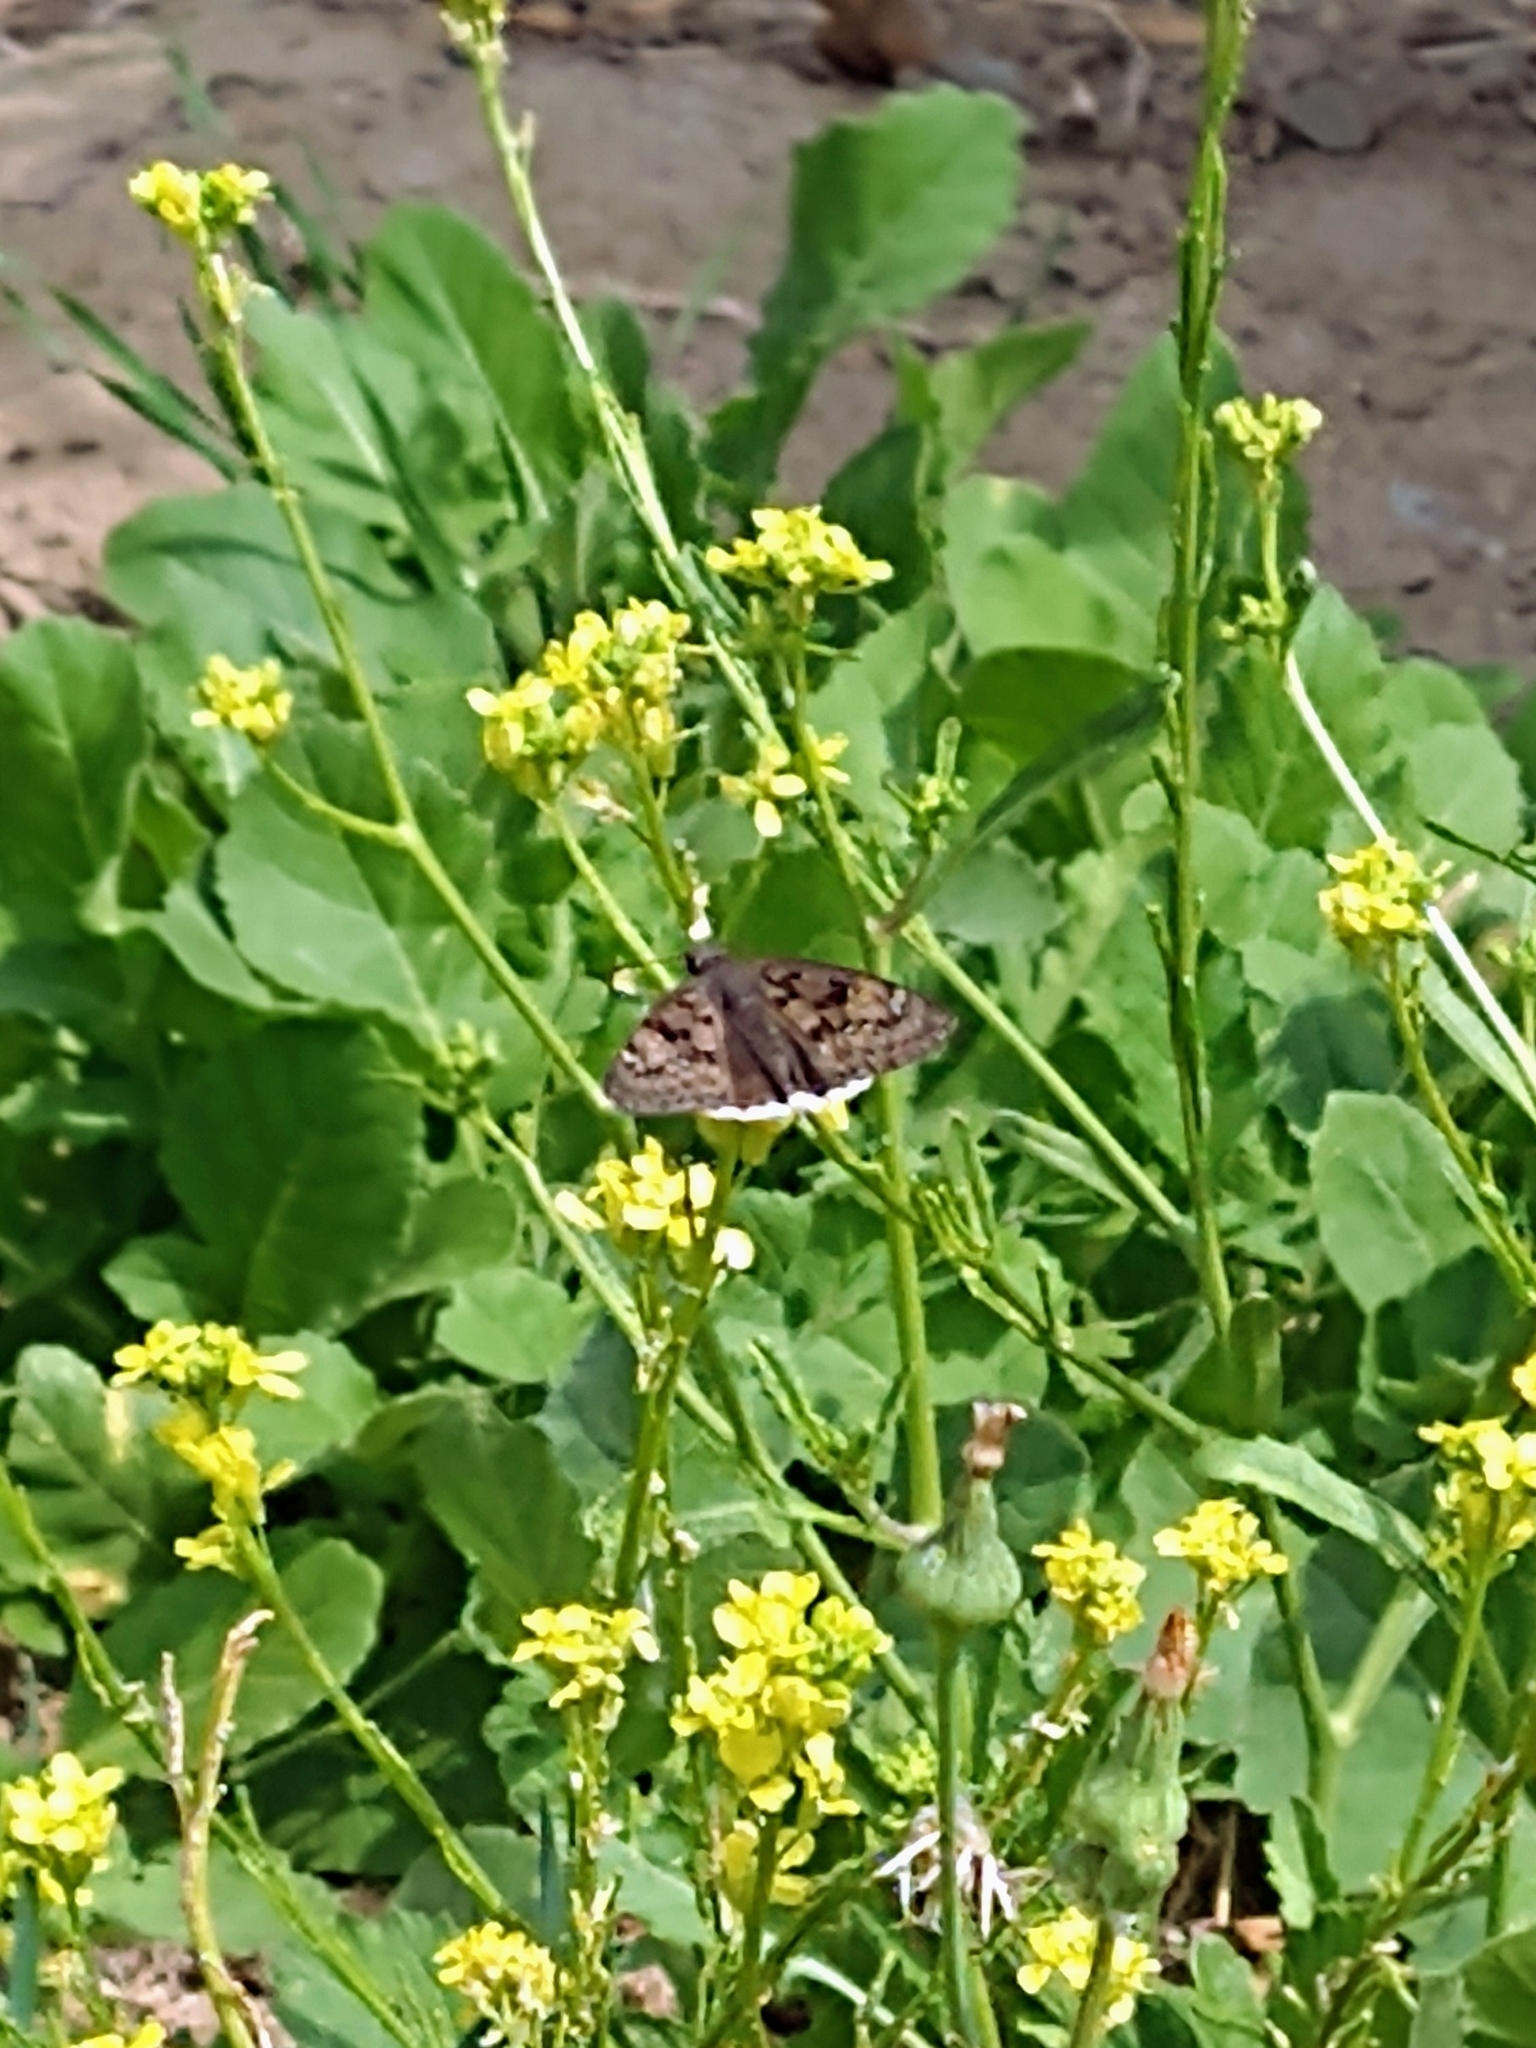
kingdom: Animalia
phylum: Arthropoda
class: Insecta
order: Lepidoptera
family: Hesperiidae
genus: Erynnis
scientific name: Erynnis tristis
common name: Mournful duskywing
